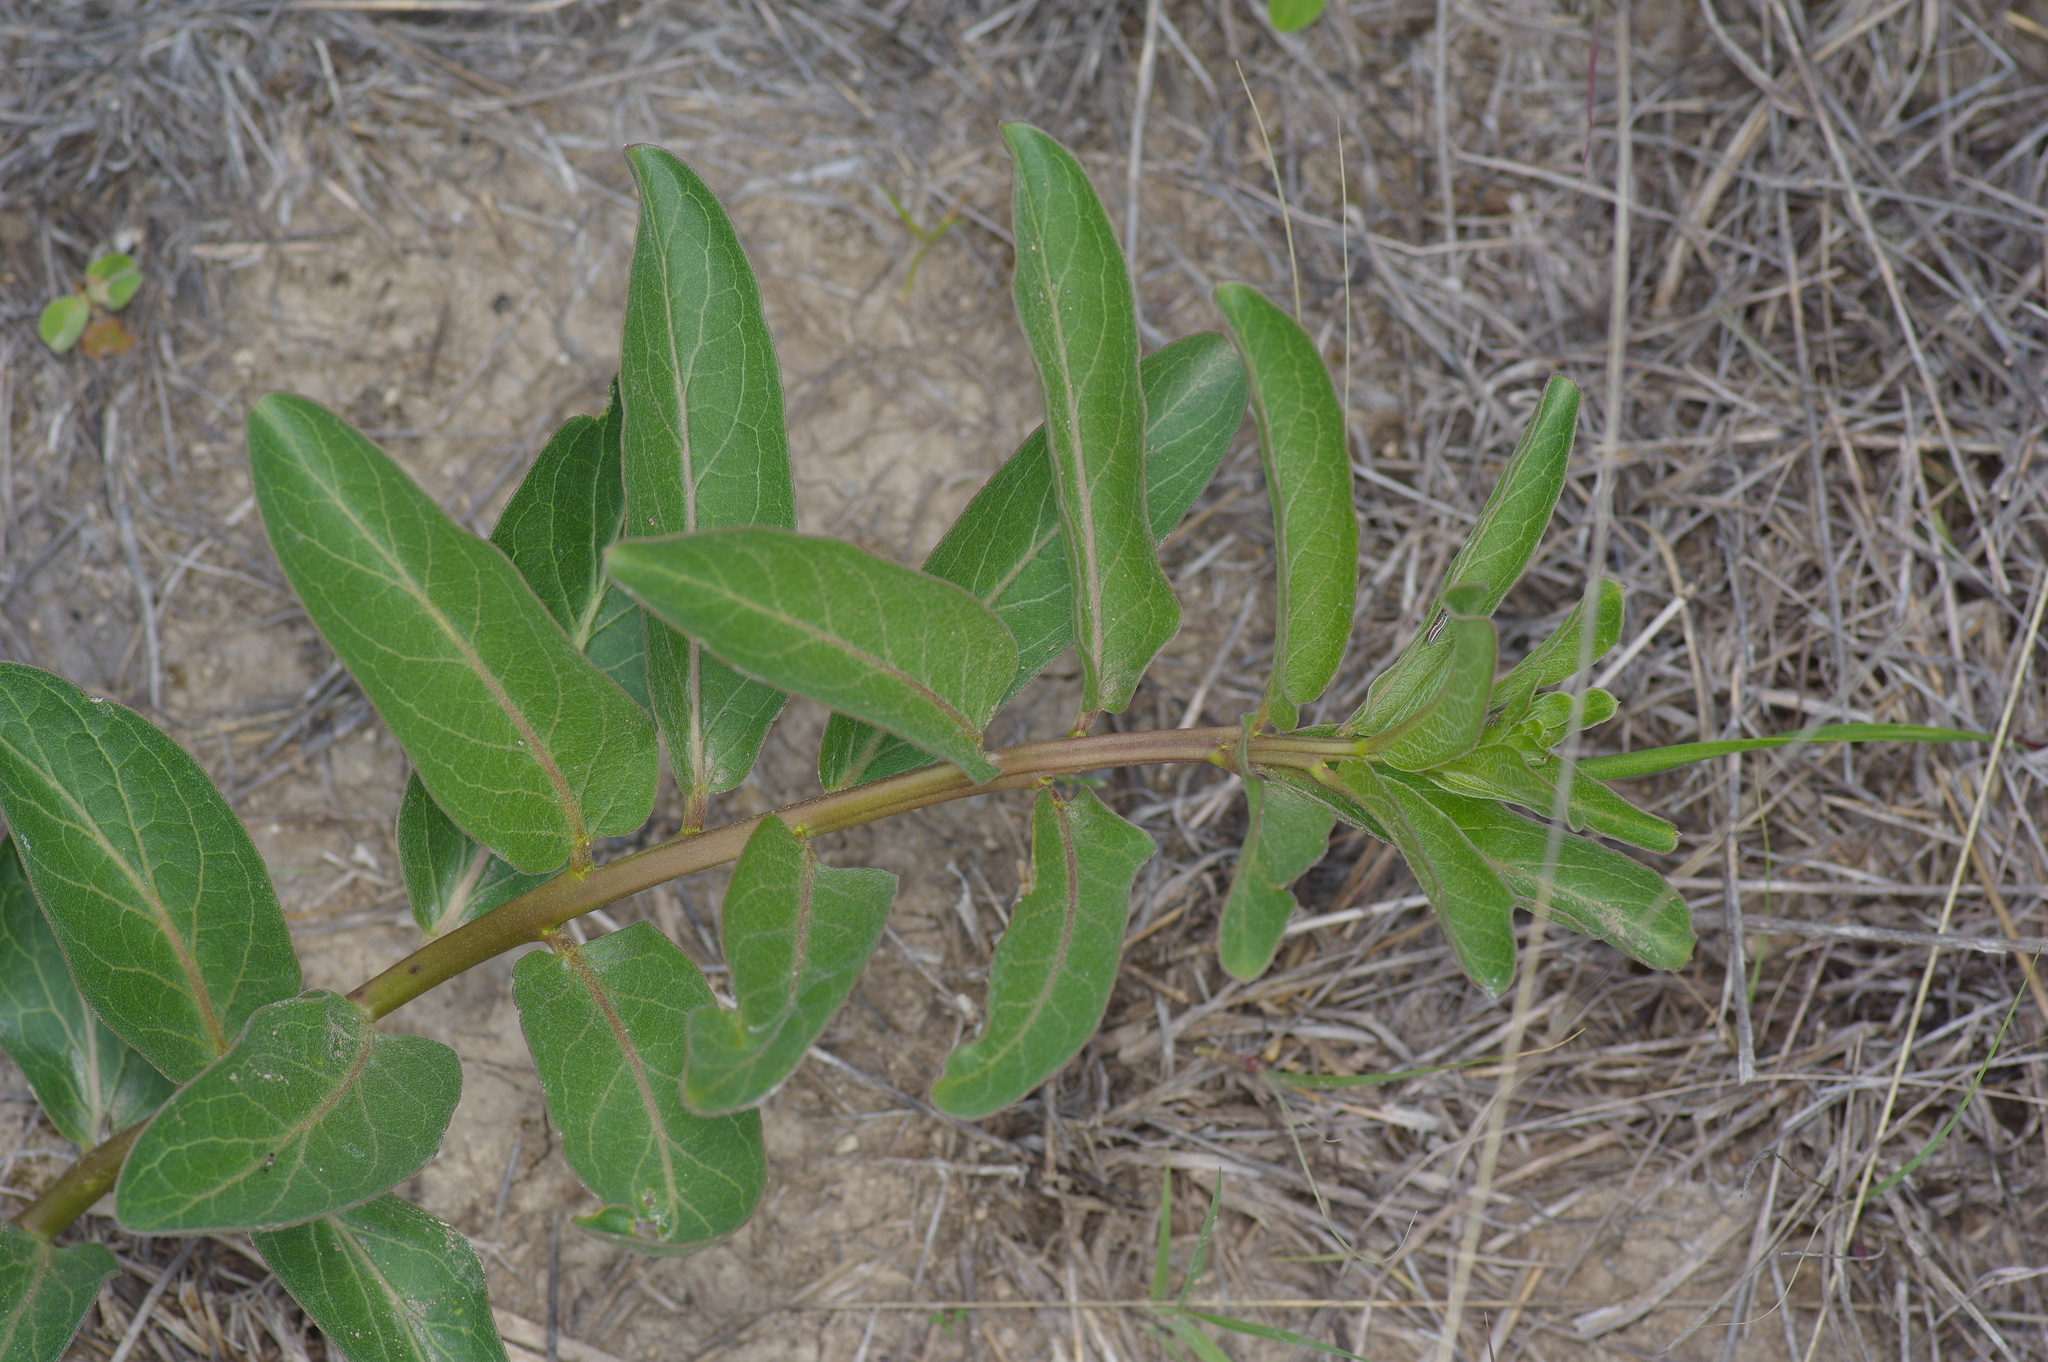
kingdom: Plantae
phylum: Tracheophyta
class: Magnoliopsida
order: Gentianales
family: Apocynaceae
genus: Asclepias
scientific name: Asclepias viridis
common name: Antelope-horns
